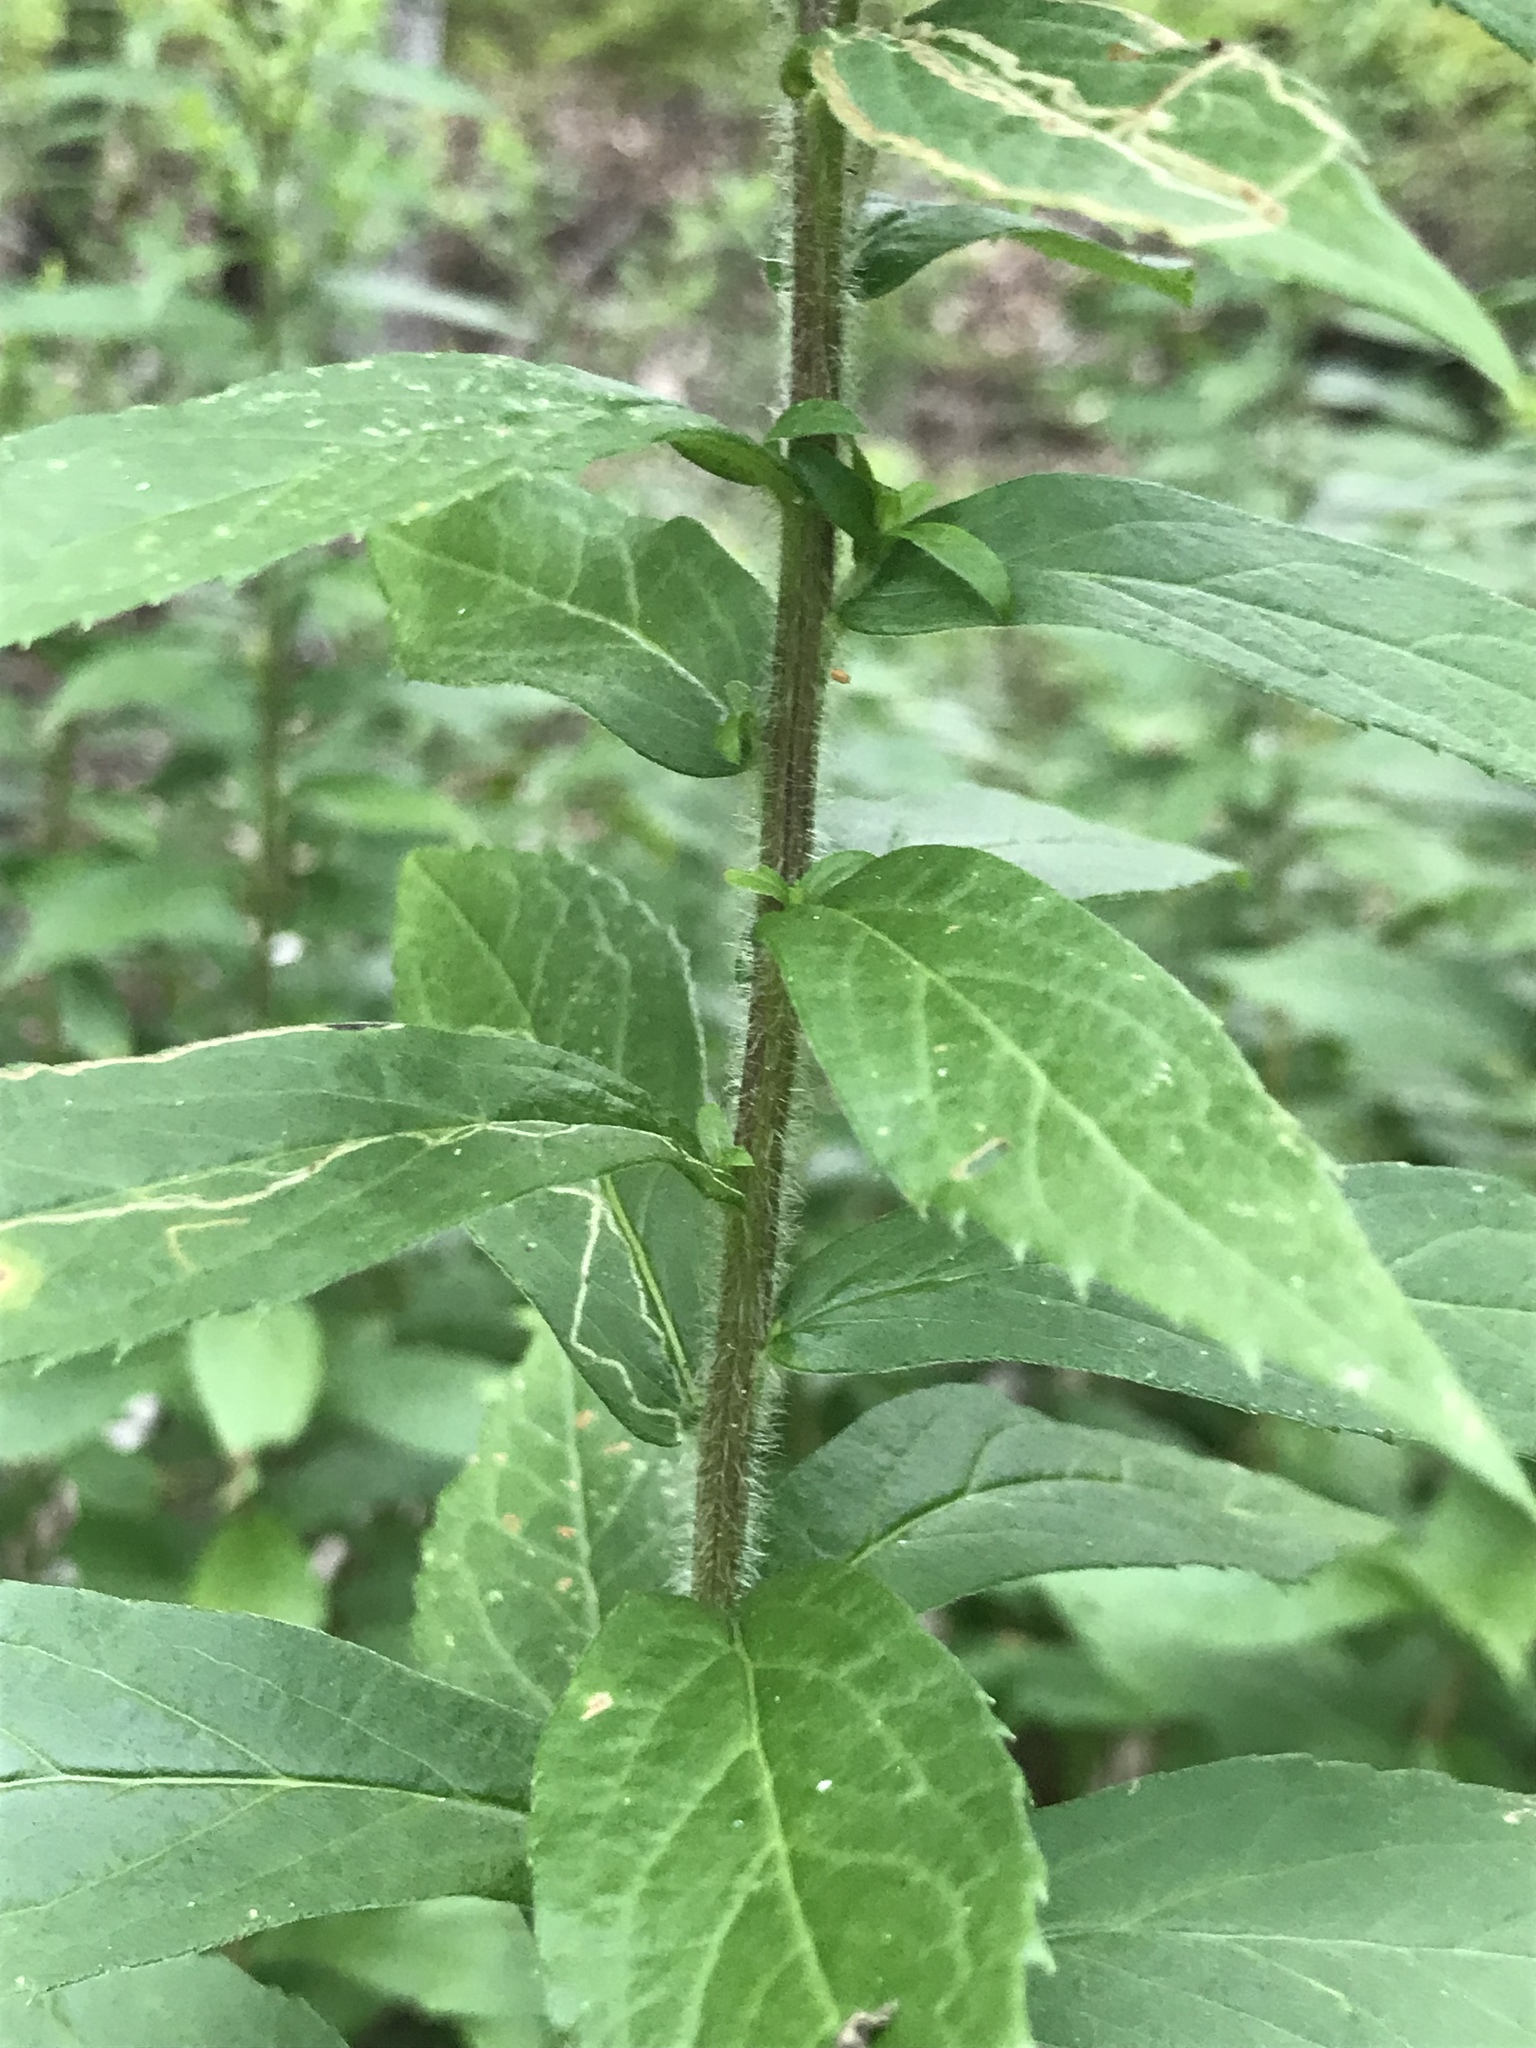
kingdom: Plantae
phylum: Tracheophyta
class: Magnoliopsida
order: Asterales
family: Asteraceae
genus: Solidago
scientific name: Solidago rugosa
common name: Rough-stemmed goldenrod
